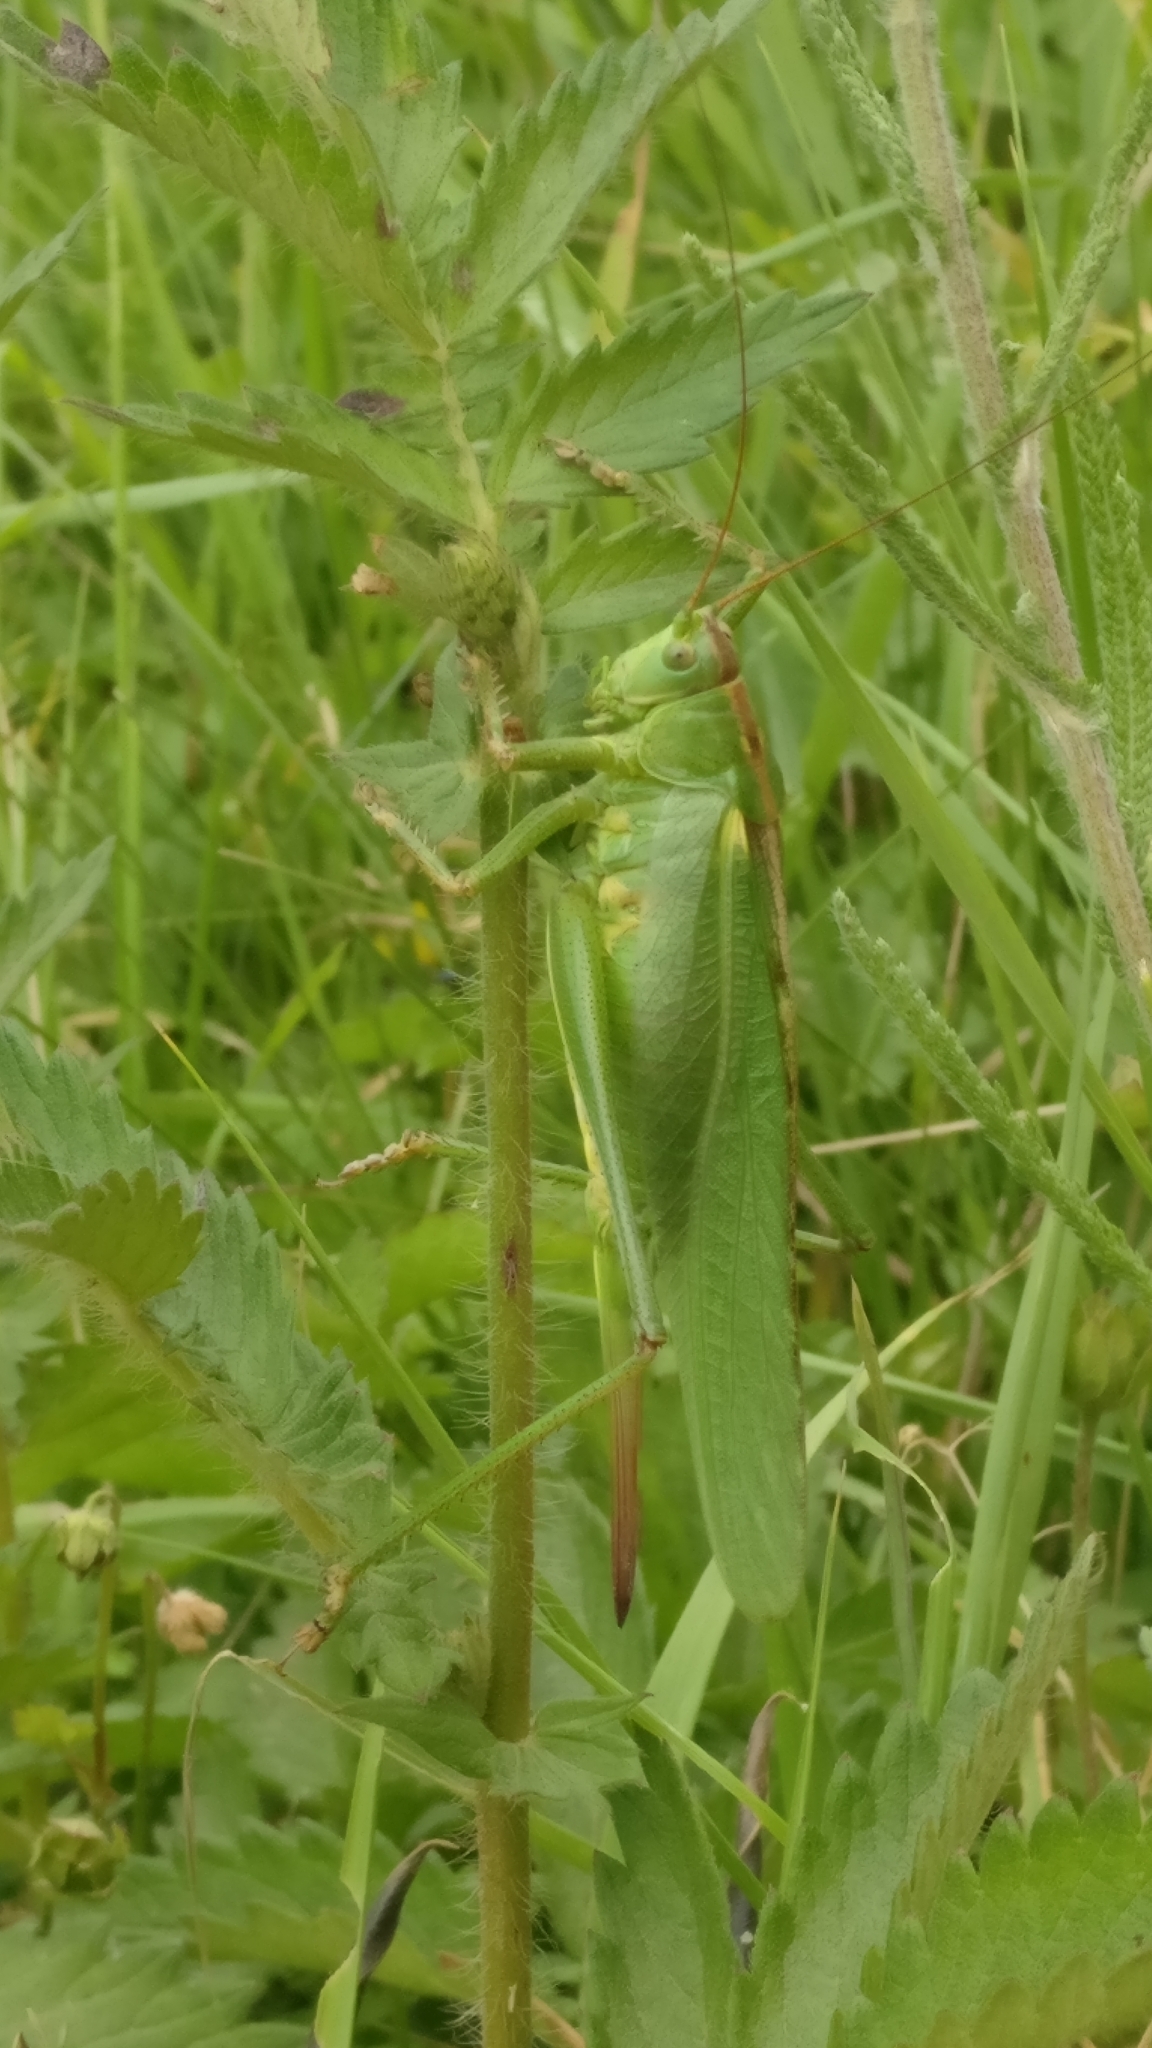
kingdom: Animalia
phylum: Arthropoda
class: Insecta
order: Orthoptera
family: Tettigoniidae
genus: Tettigonia
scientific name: Tettigonia viridissima
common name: Great green bush-cricket
